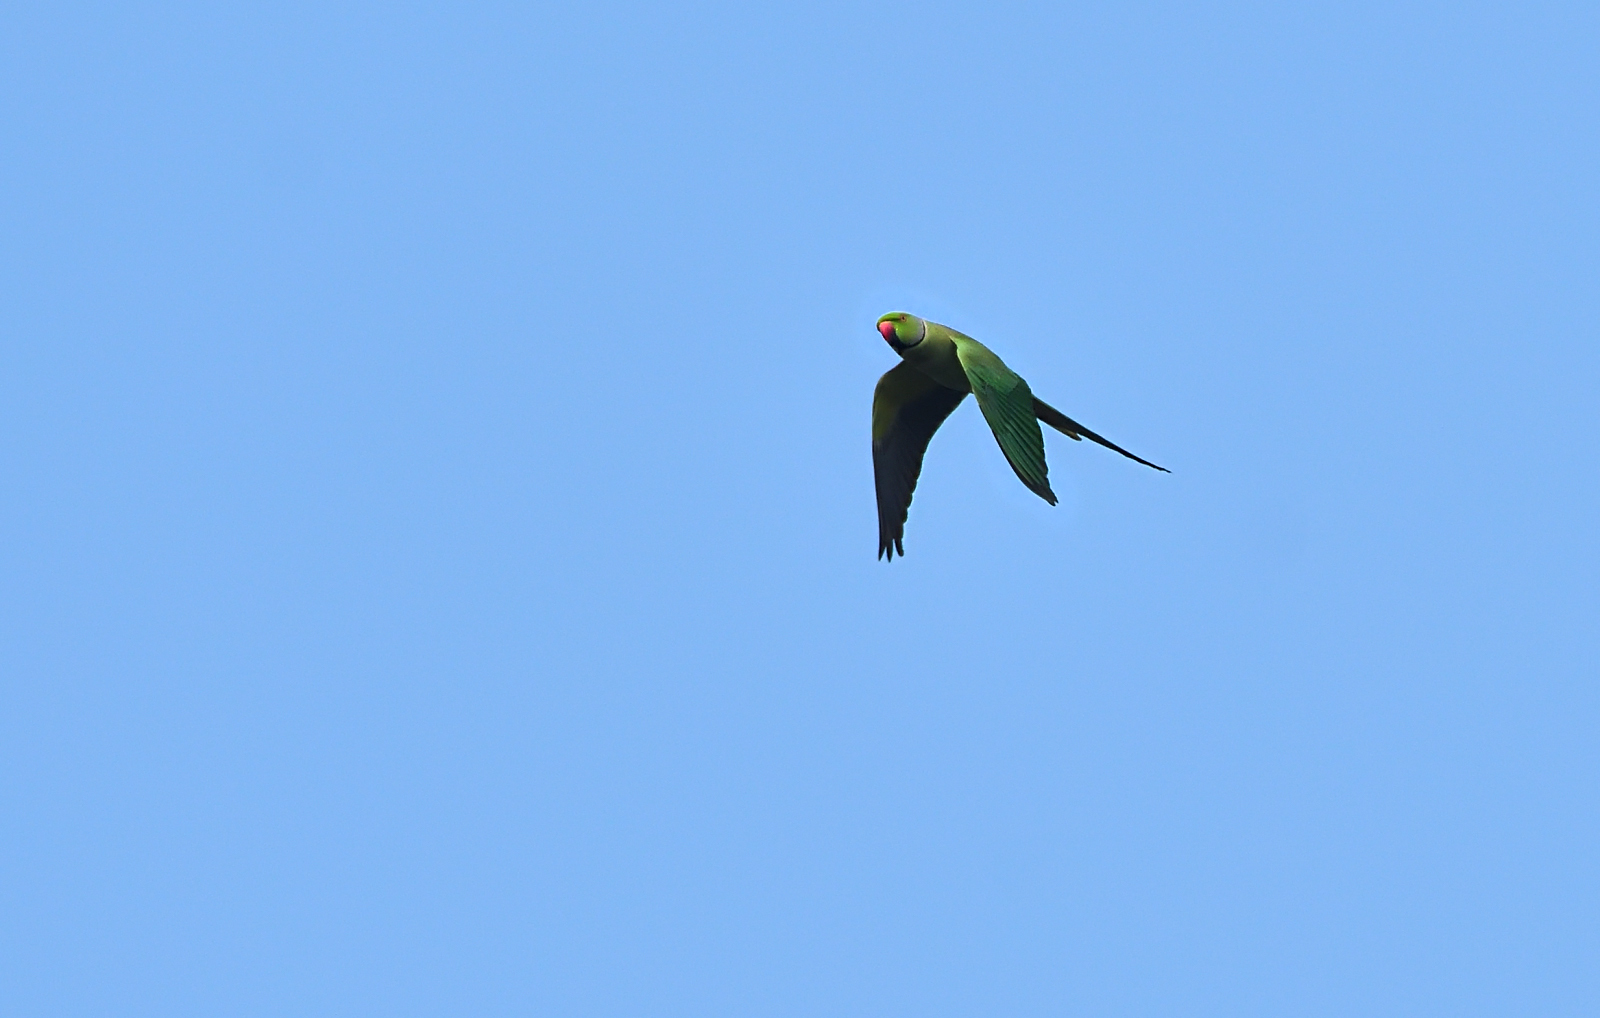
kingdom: Animalia
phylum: Chordata
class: Aves
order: Psittaciformes
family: Psittacidae
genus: Psittacula
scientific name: Psittacula krameri
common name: Rose-ringed parakeet
